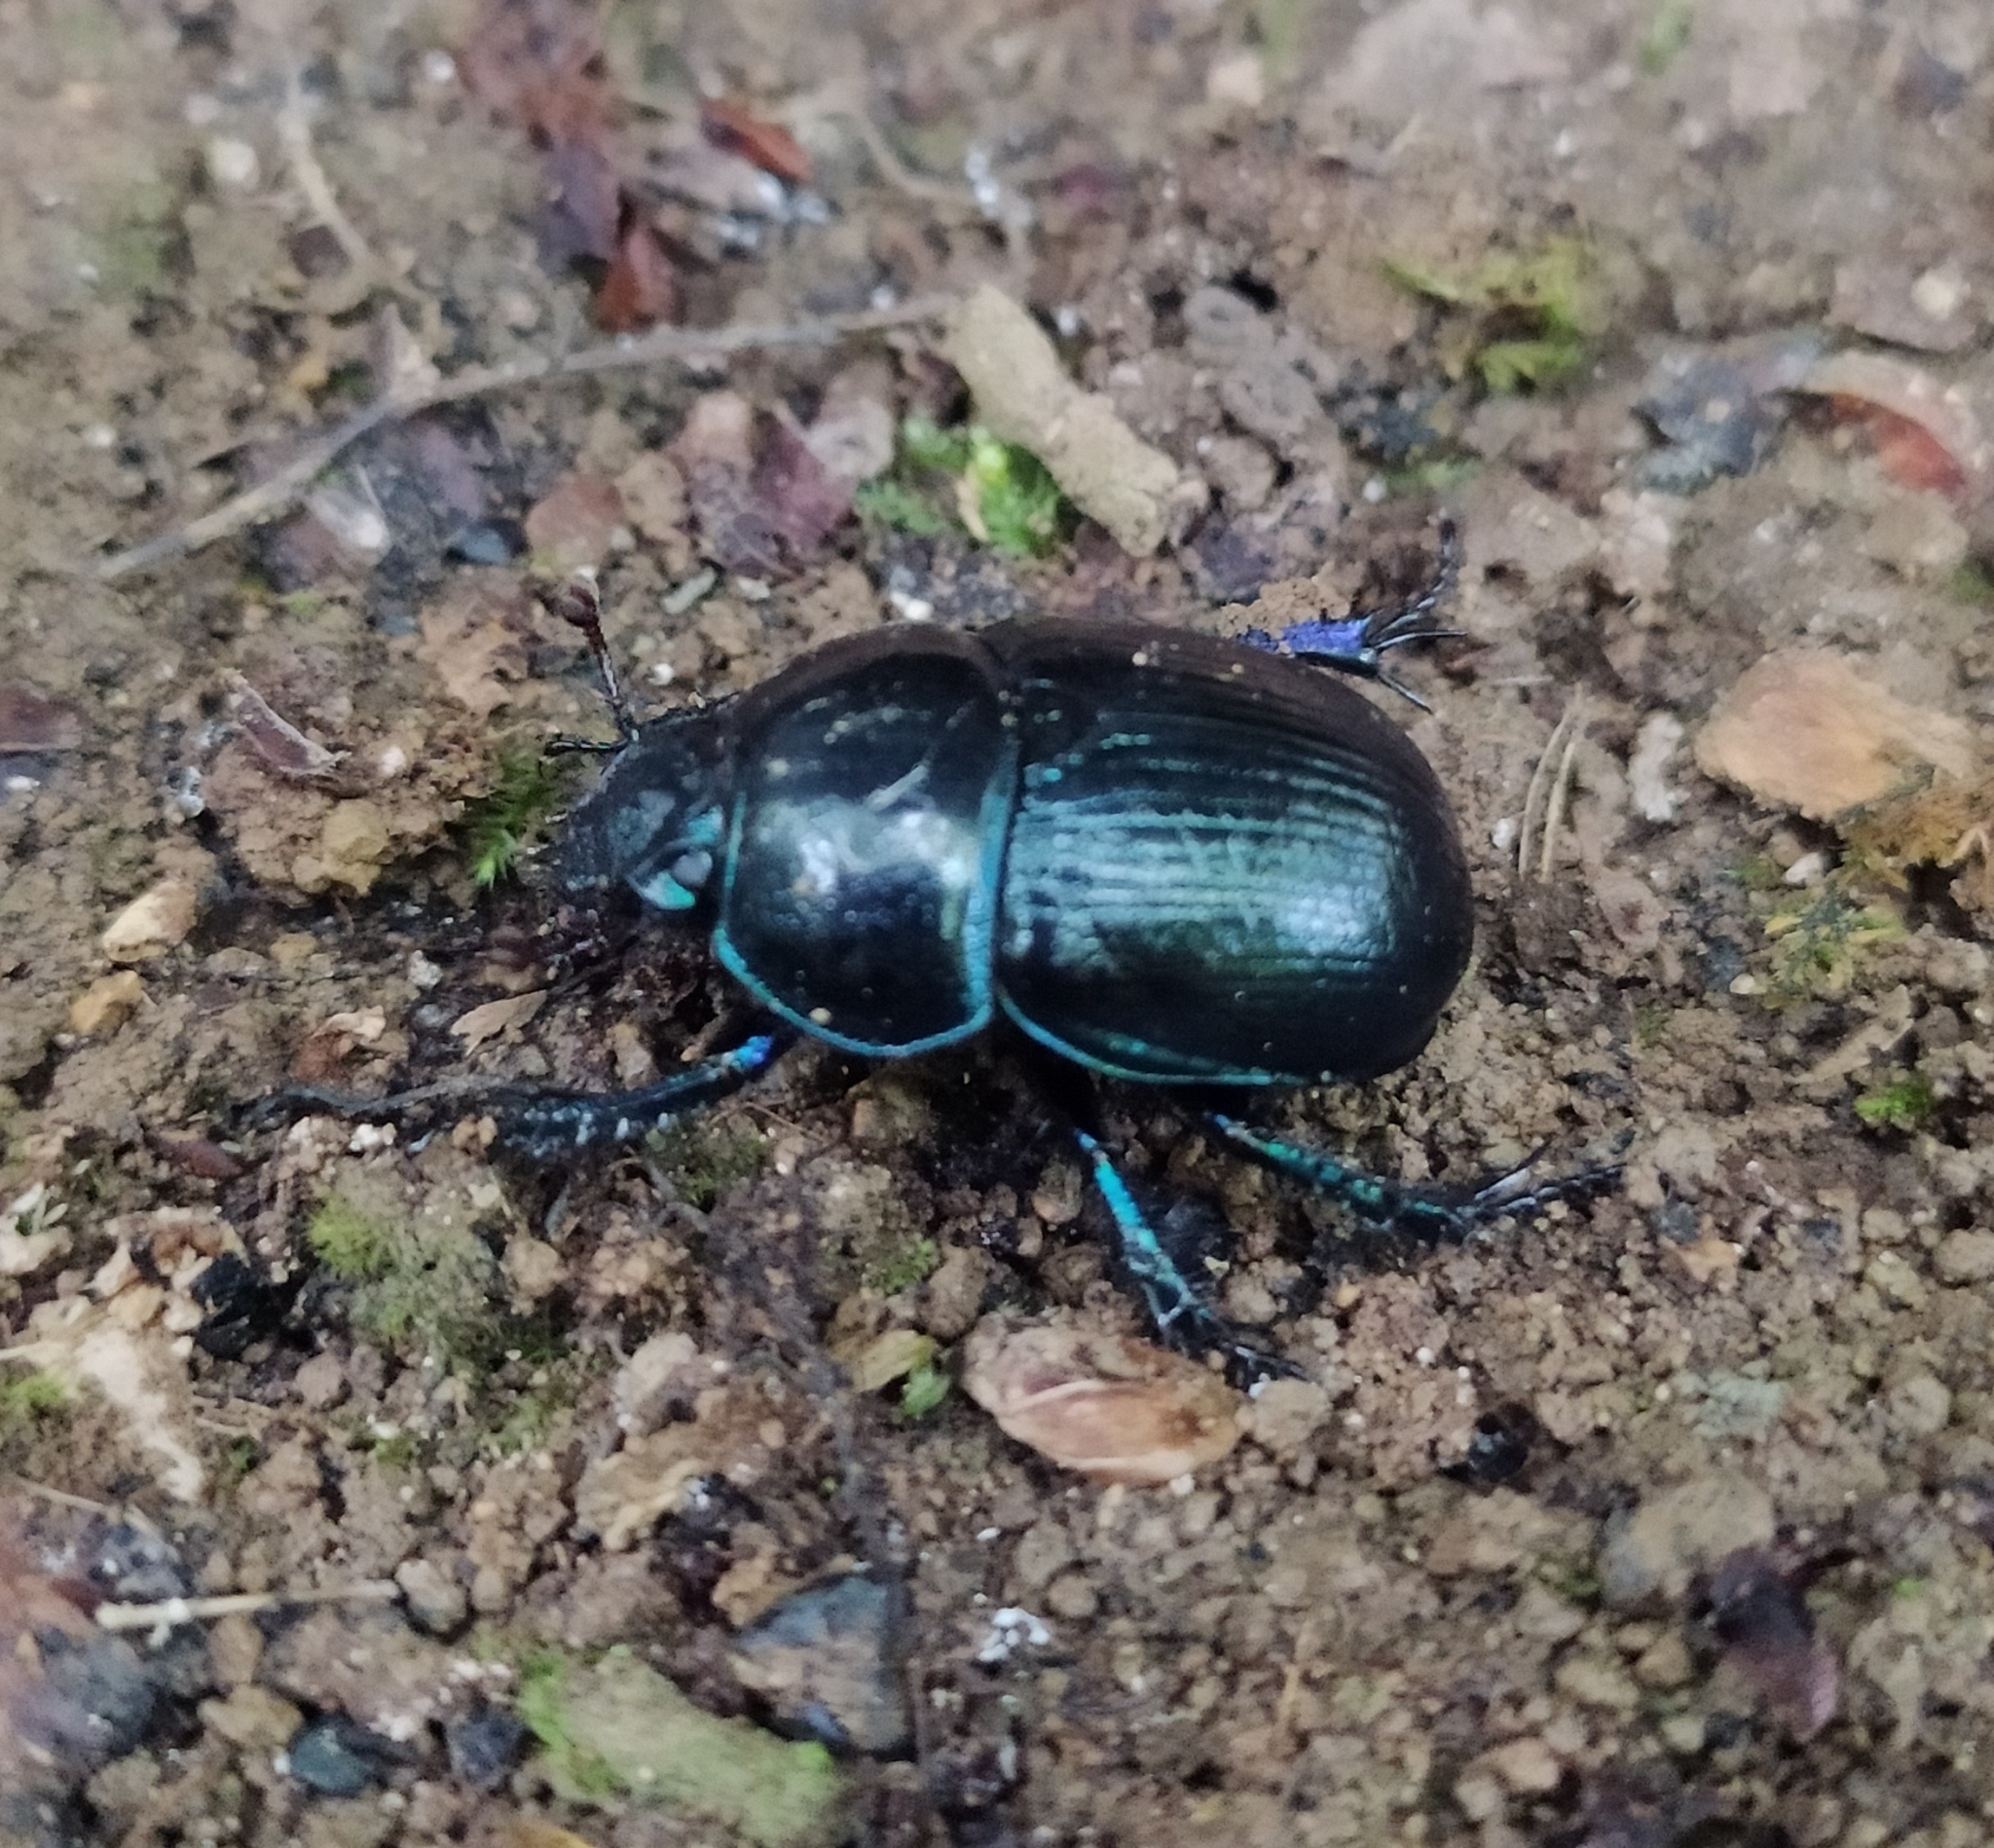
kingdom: Animalia
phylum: Arthropoda
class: Insecta
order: Coleoptera
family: Geotrupidae
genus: Anoplotrupes
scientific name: Anoplotrupes stercorosus
